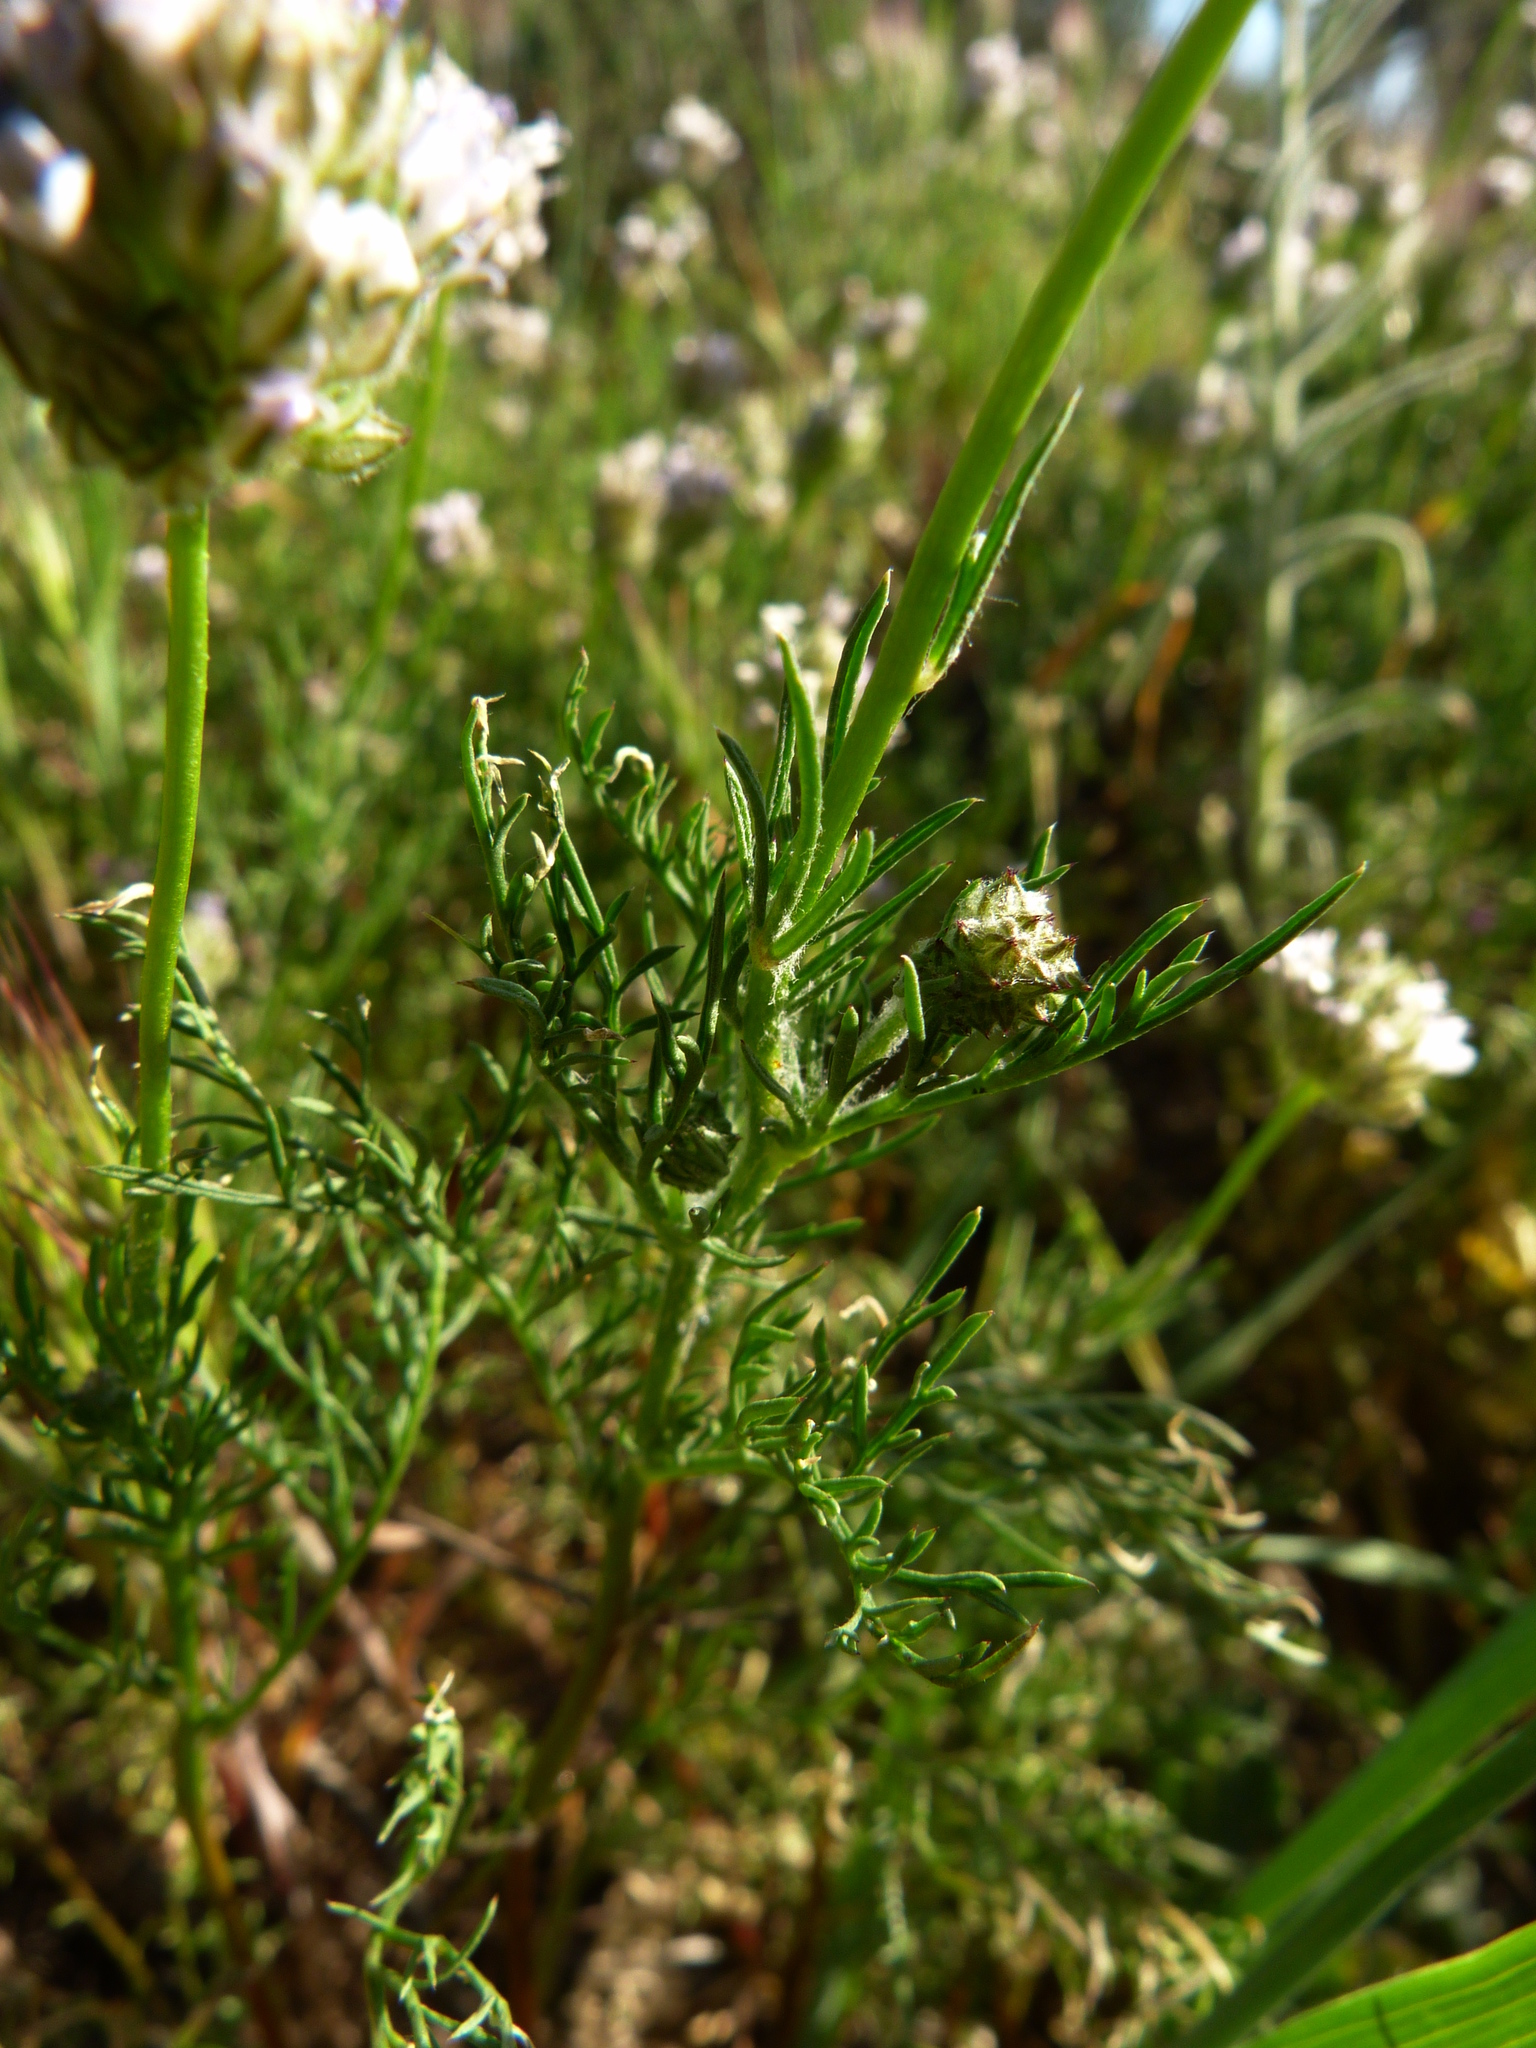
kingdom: Plantae
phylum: Tracheophyta
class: Magnoliopsida
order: Ericales
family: Polemoniaceae
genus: Gilia
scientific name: Gilia capitata
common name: Bluehead gilia
